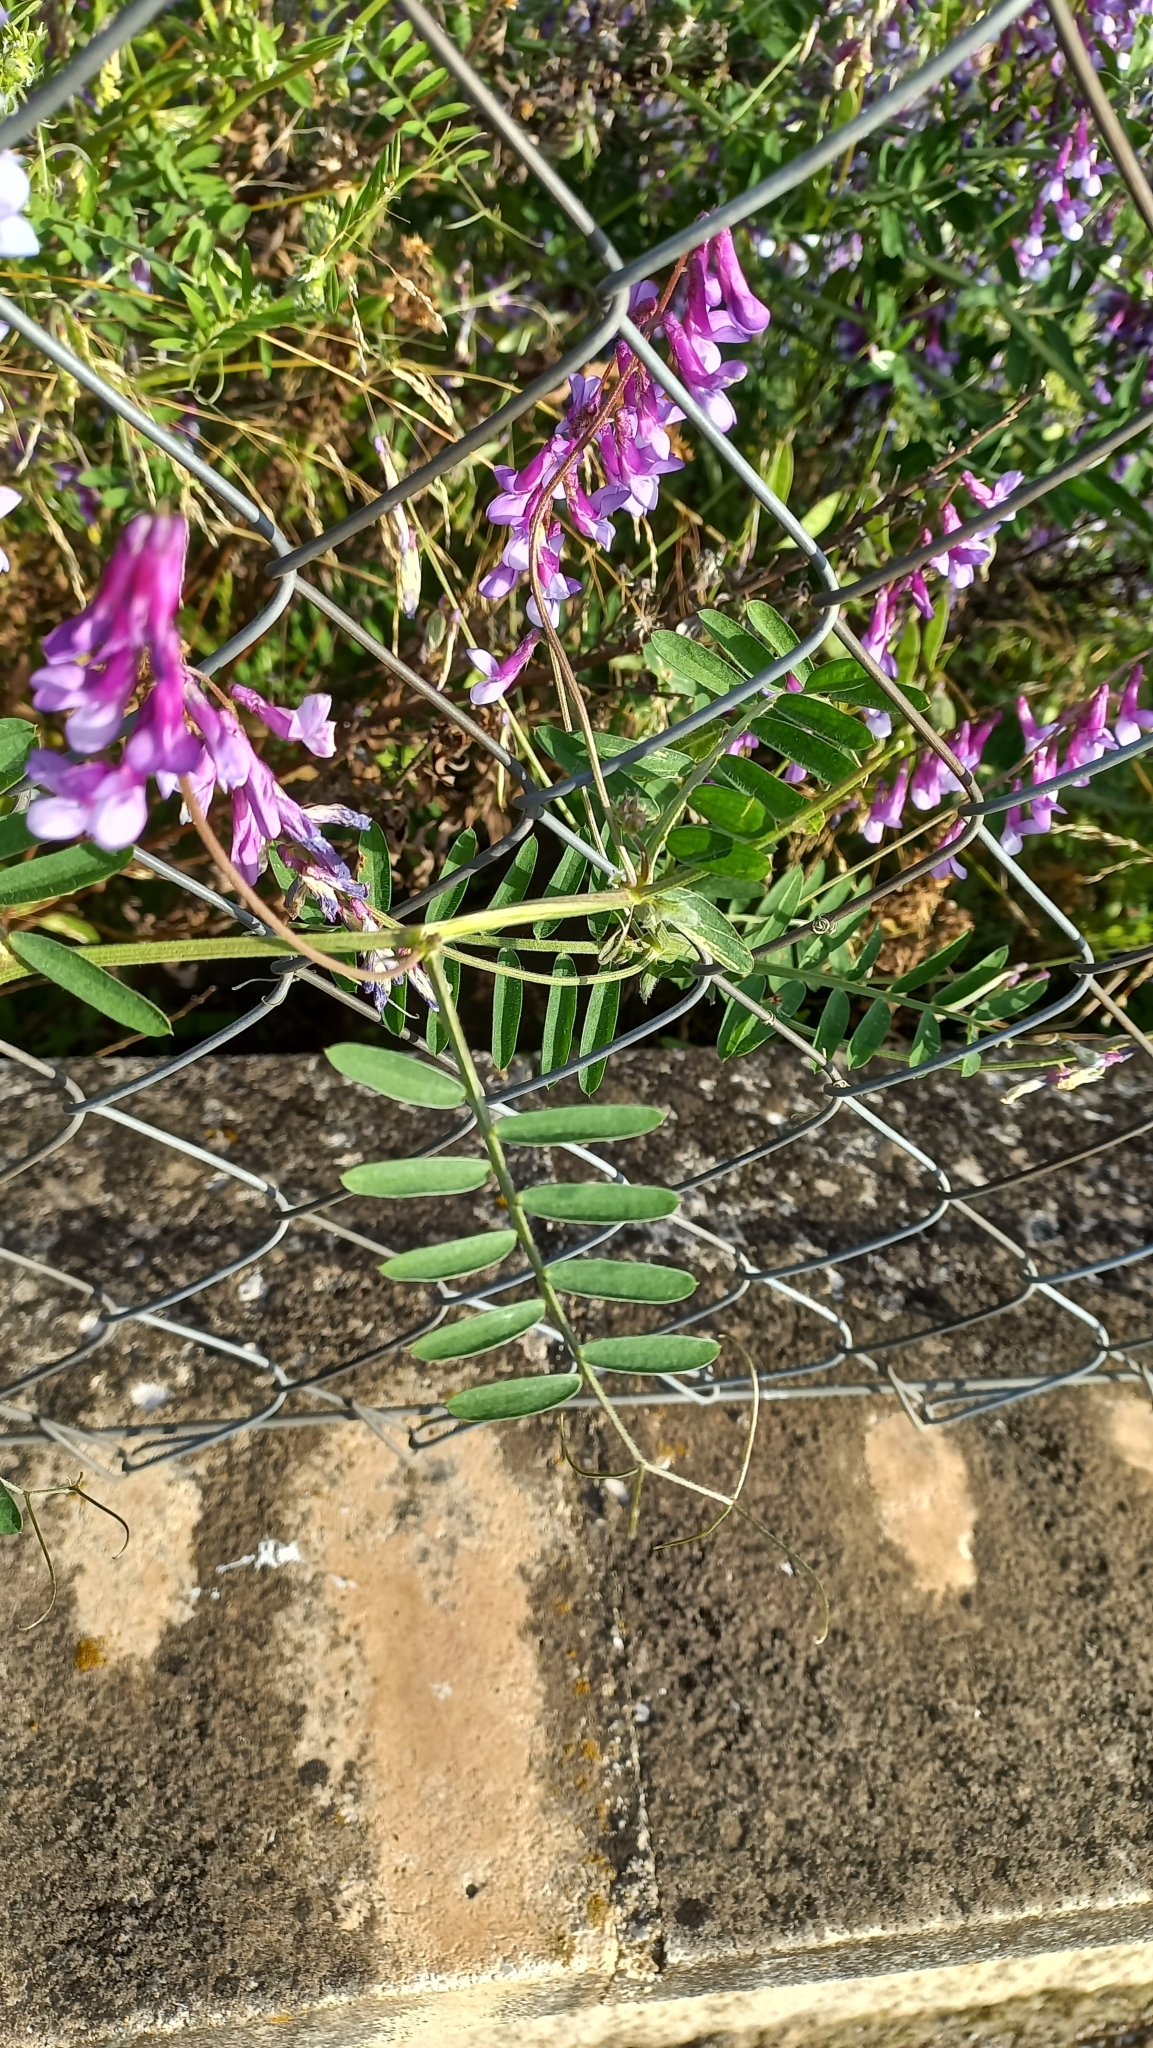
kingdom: Plantae
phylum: Tracheophyta
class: Magnoliopsida
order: Fabales
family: Fabaceae
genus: Vicia
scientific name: Vicia villosa
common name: Fodder vetch
